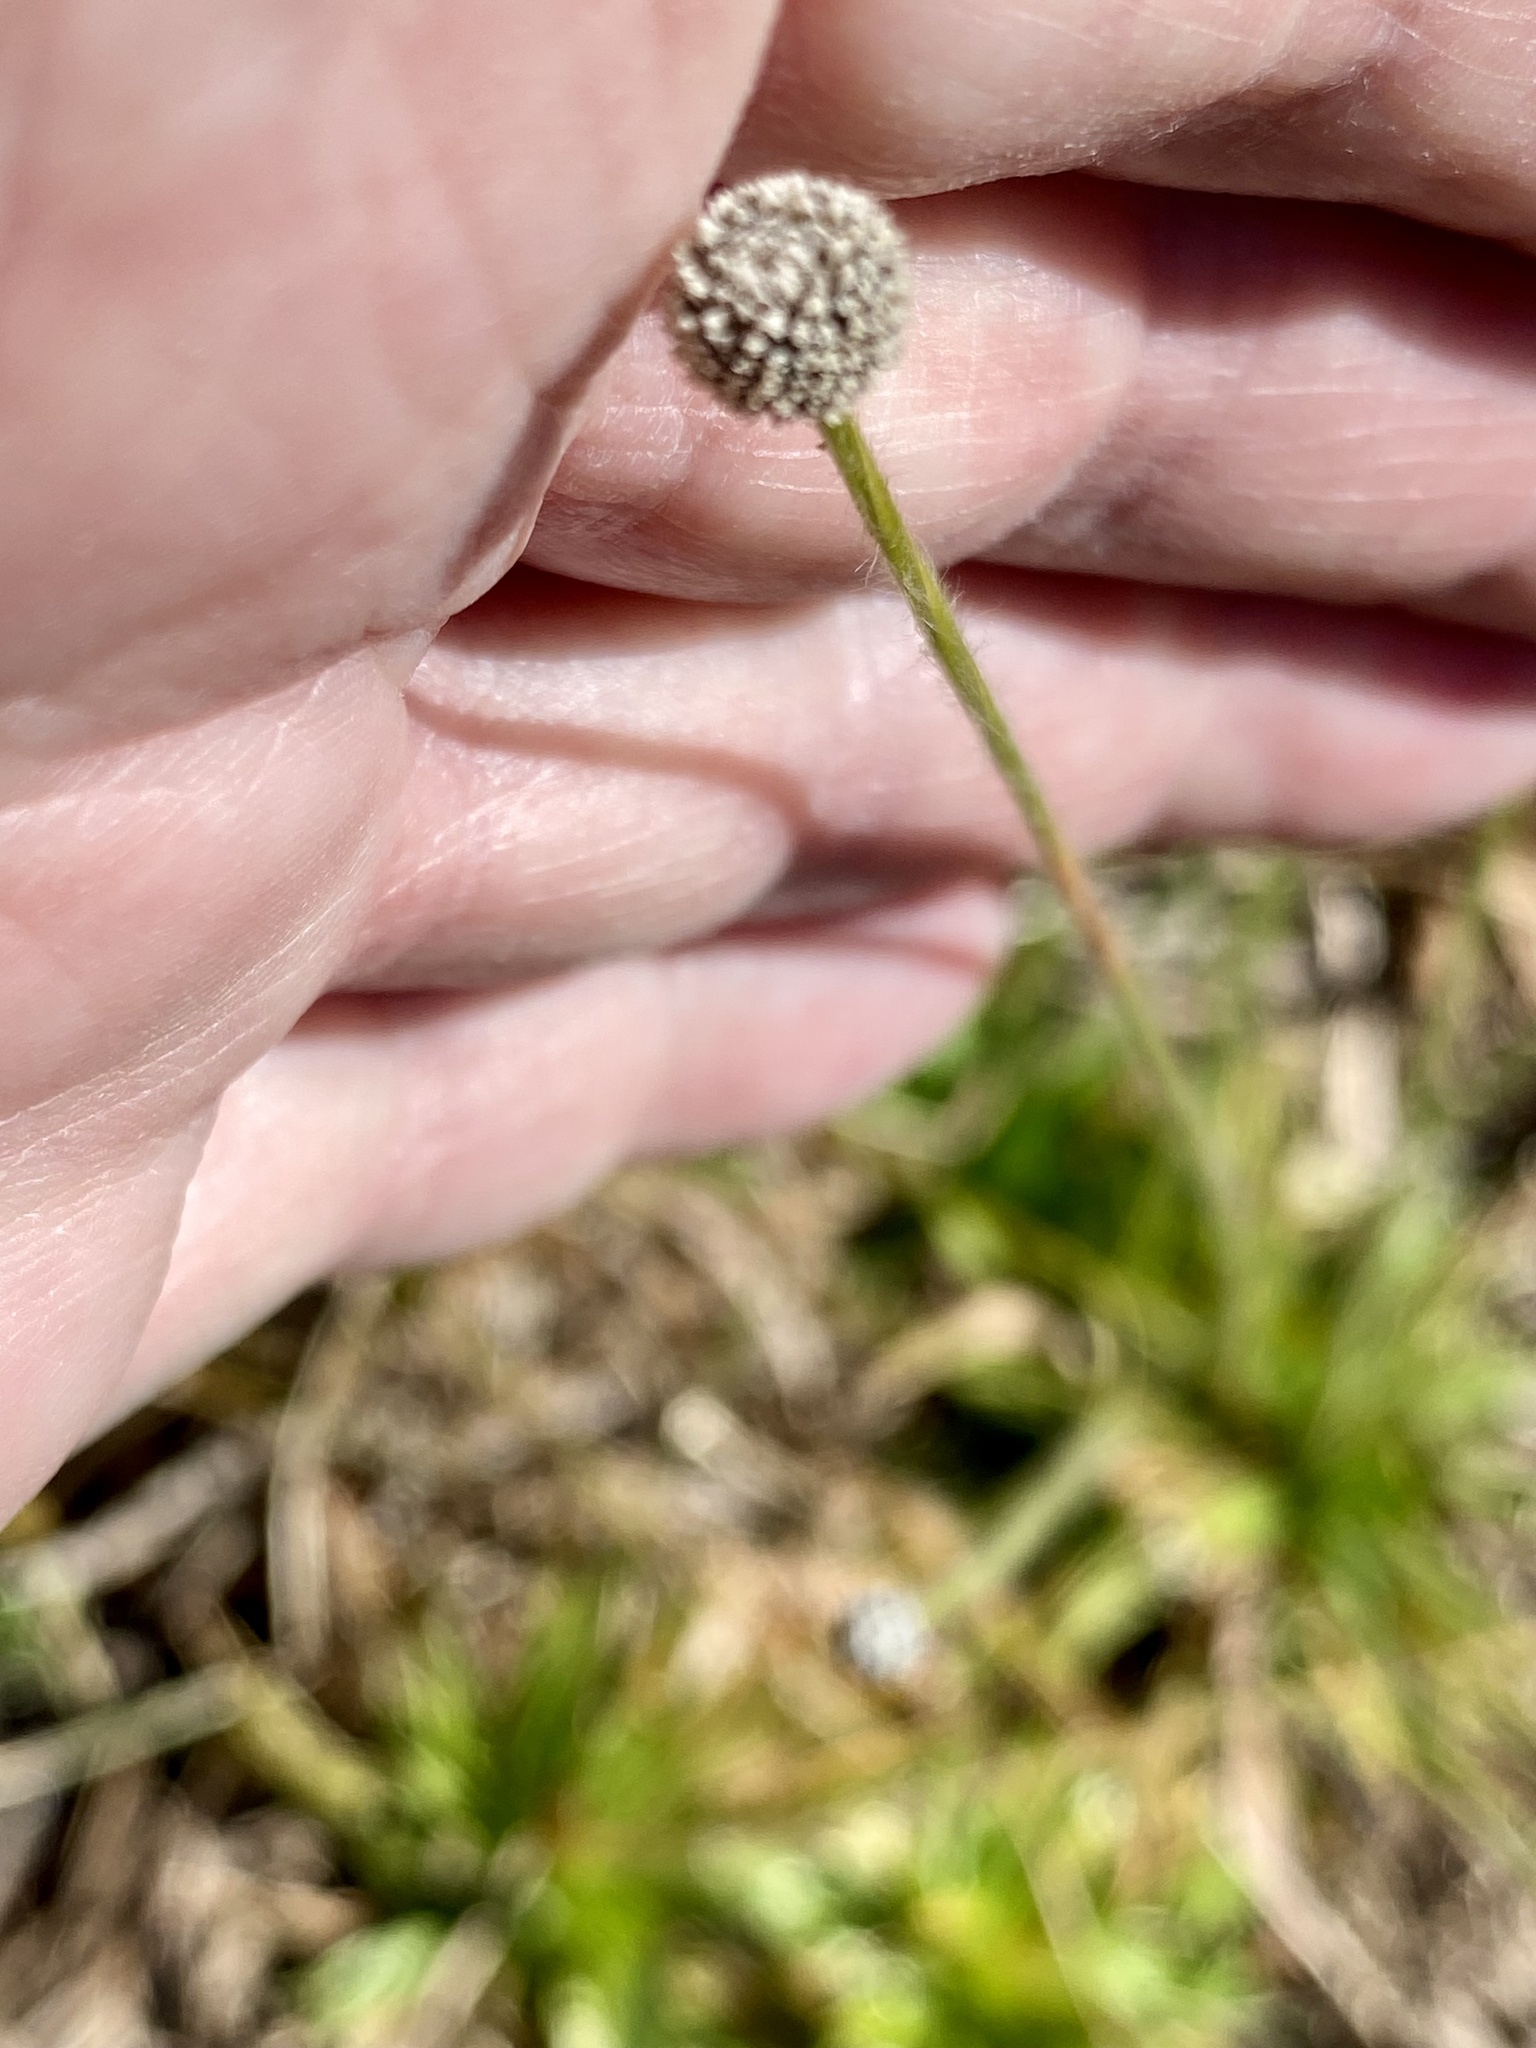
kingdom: Plantae
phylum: Tracheophyta
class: Liliopsida
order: Poales
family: Eriocaulaceae
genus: Paepalanthus
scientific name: Paepalanthus anceps
